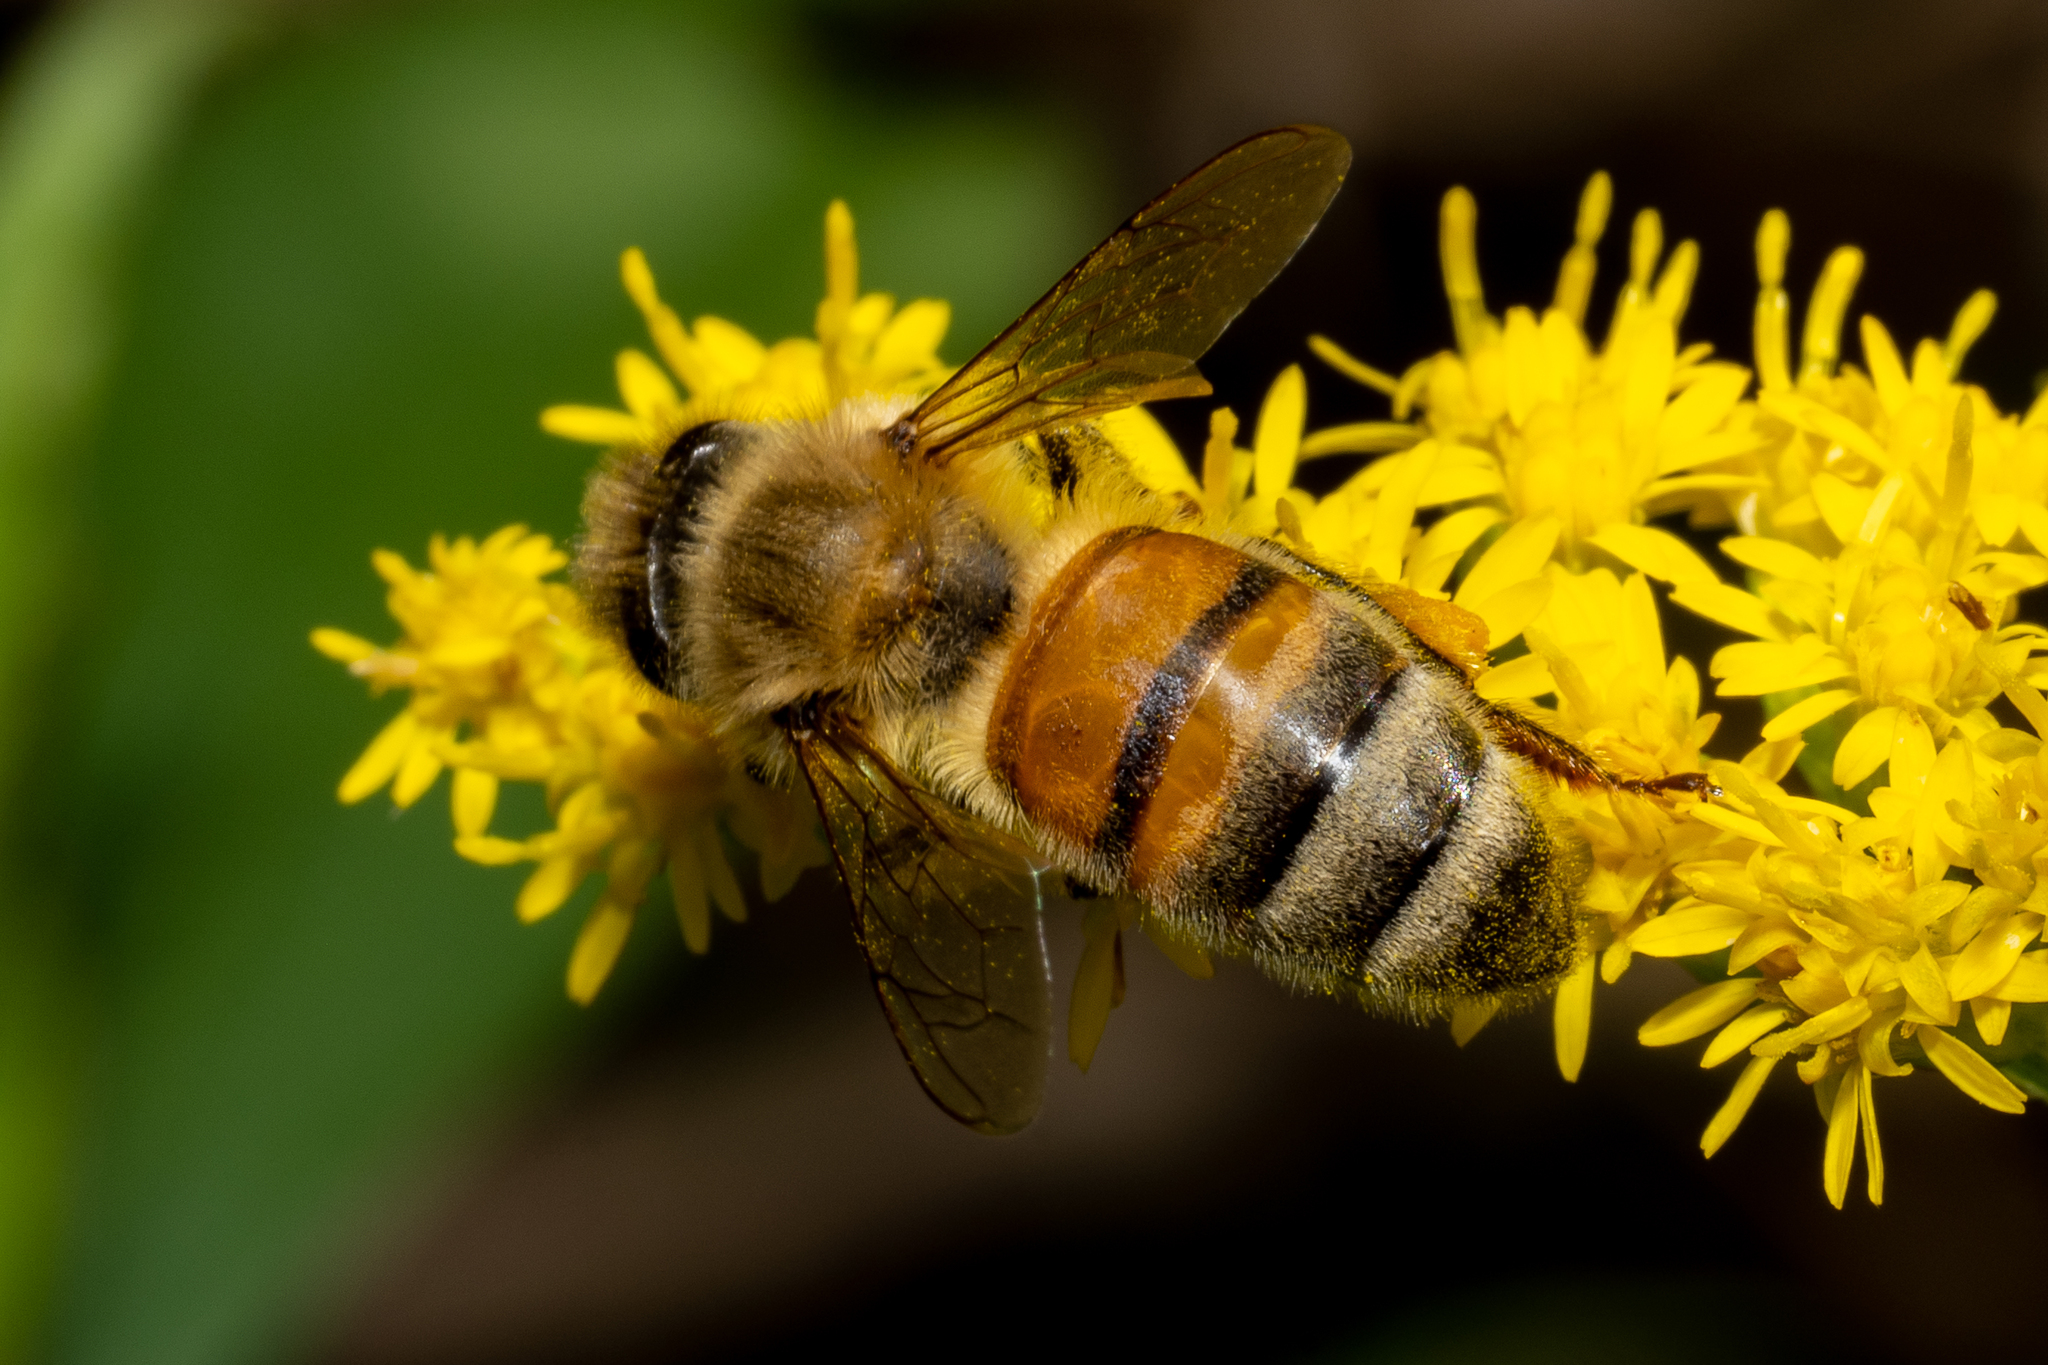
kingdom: Animalia
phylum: Arthropoda
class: Insecta
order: Hymenoptera
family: Apidae
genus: Apis
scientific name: Apis mellifera
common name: Honey bee
